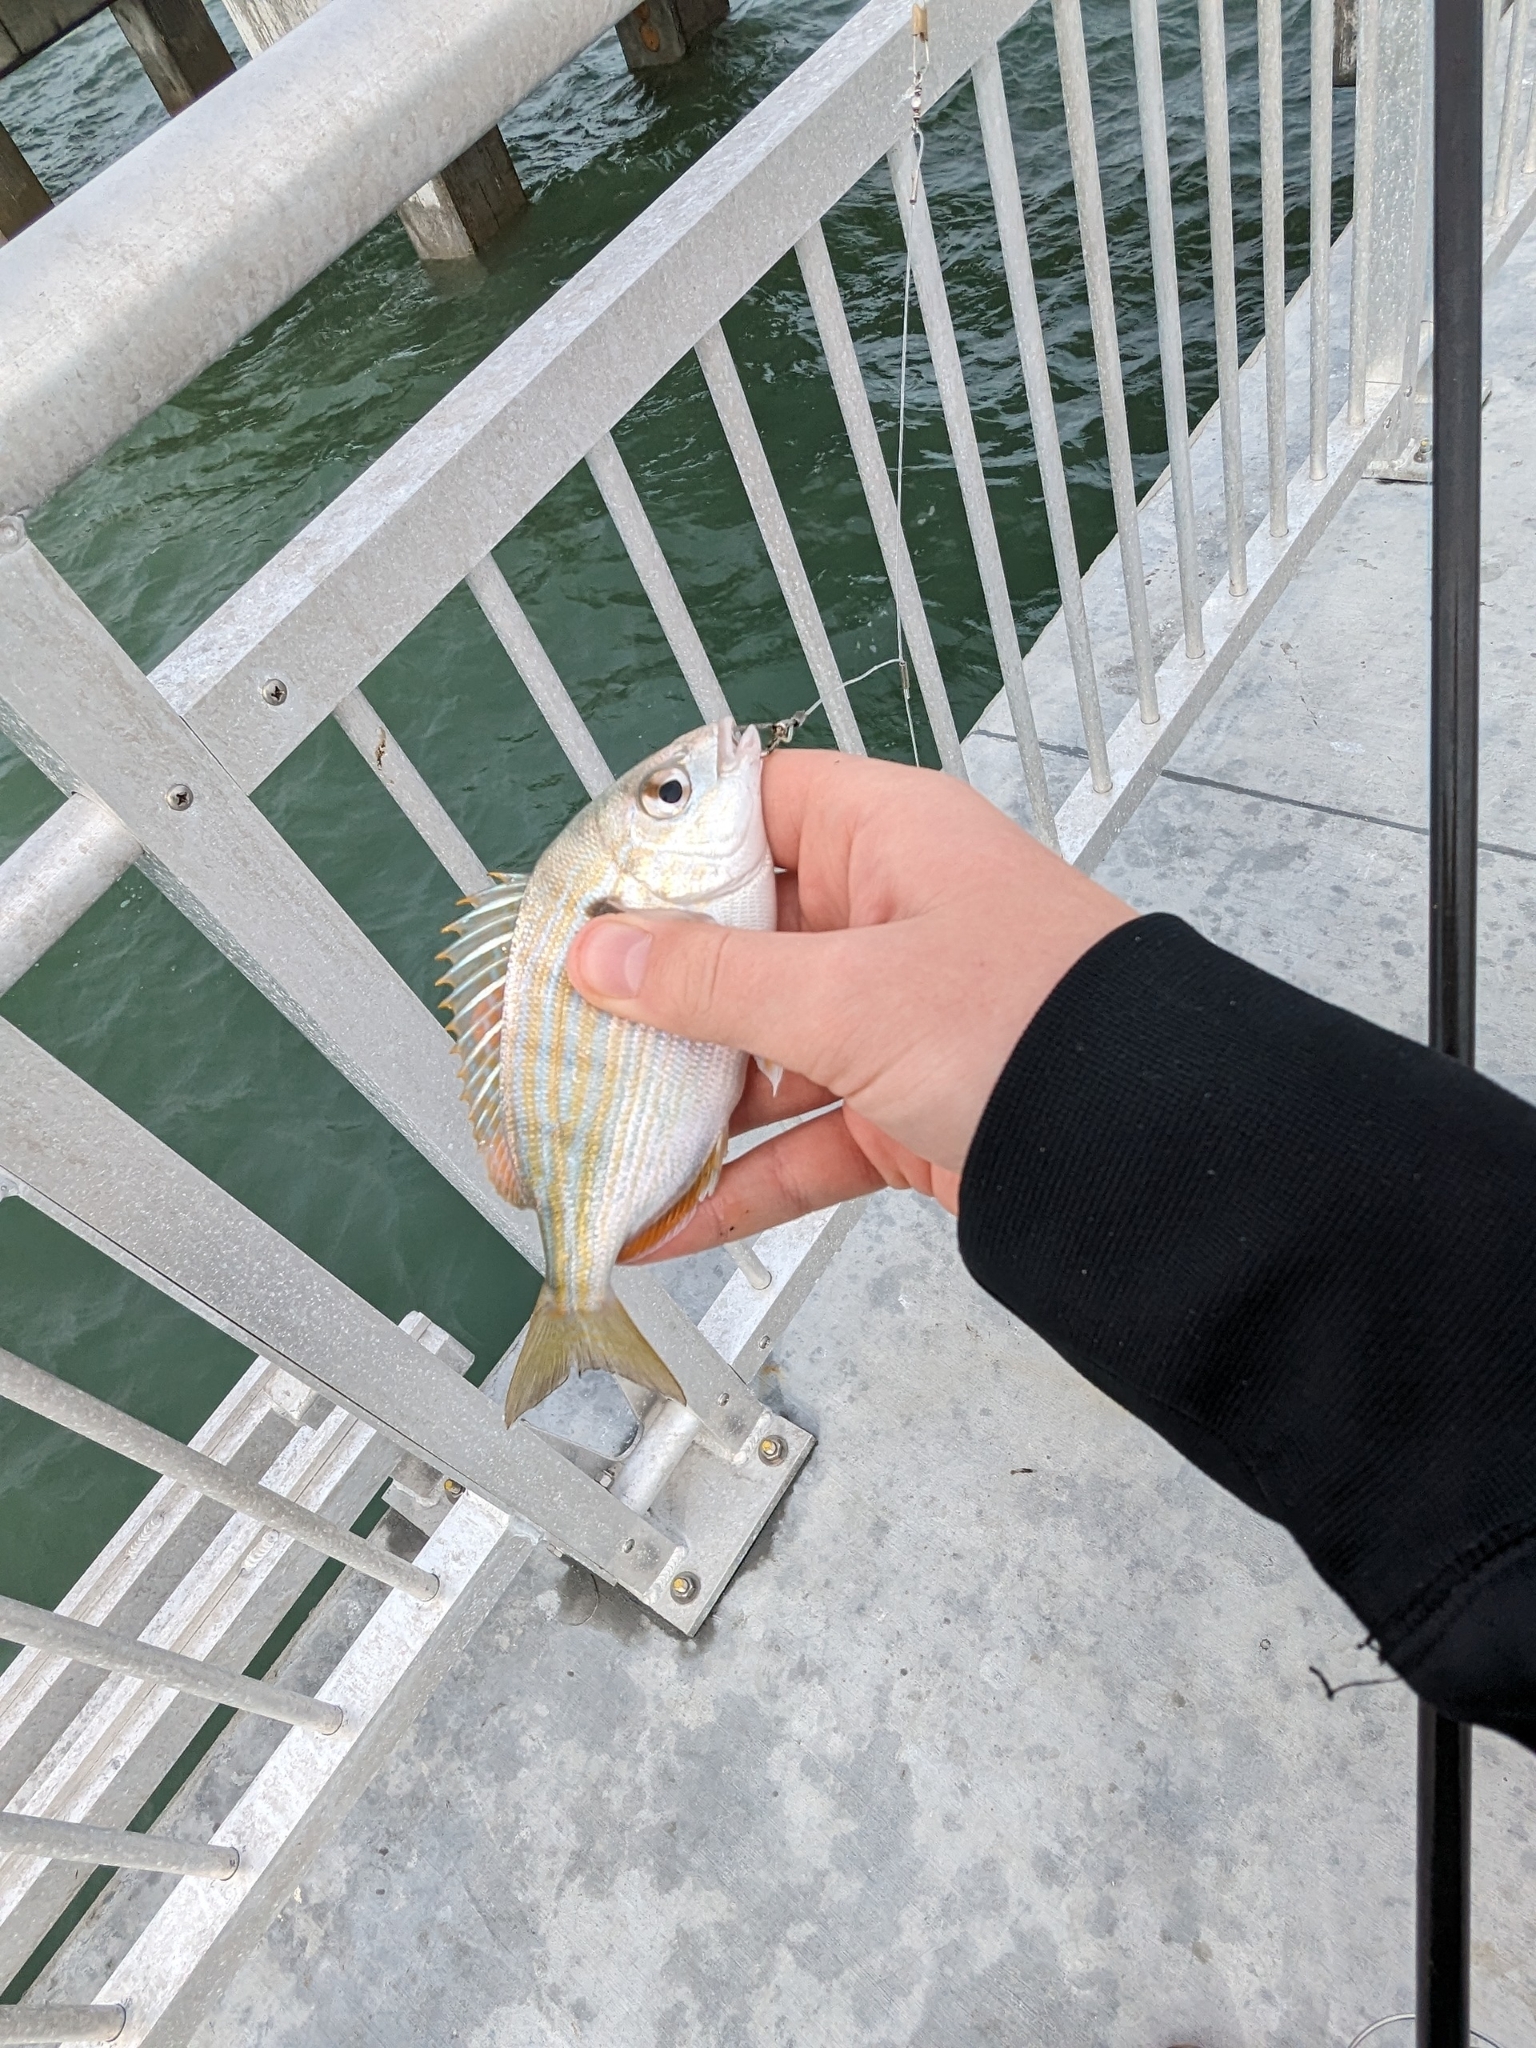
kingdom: Animalia
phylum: Chordata
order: Perciformes
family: Sparidae
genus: Lagodon
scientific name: Lagodon rhomboides
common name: Pinfish
